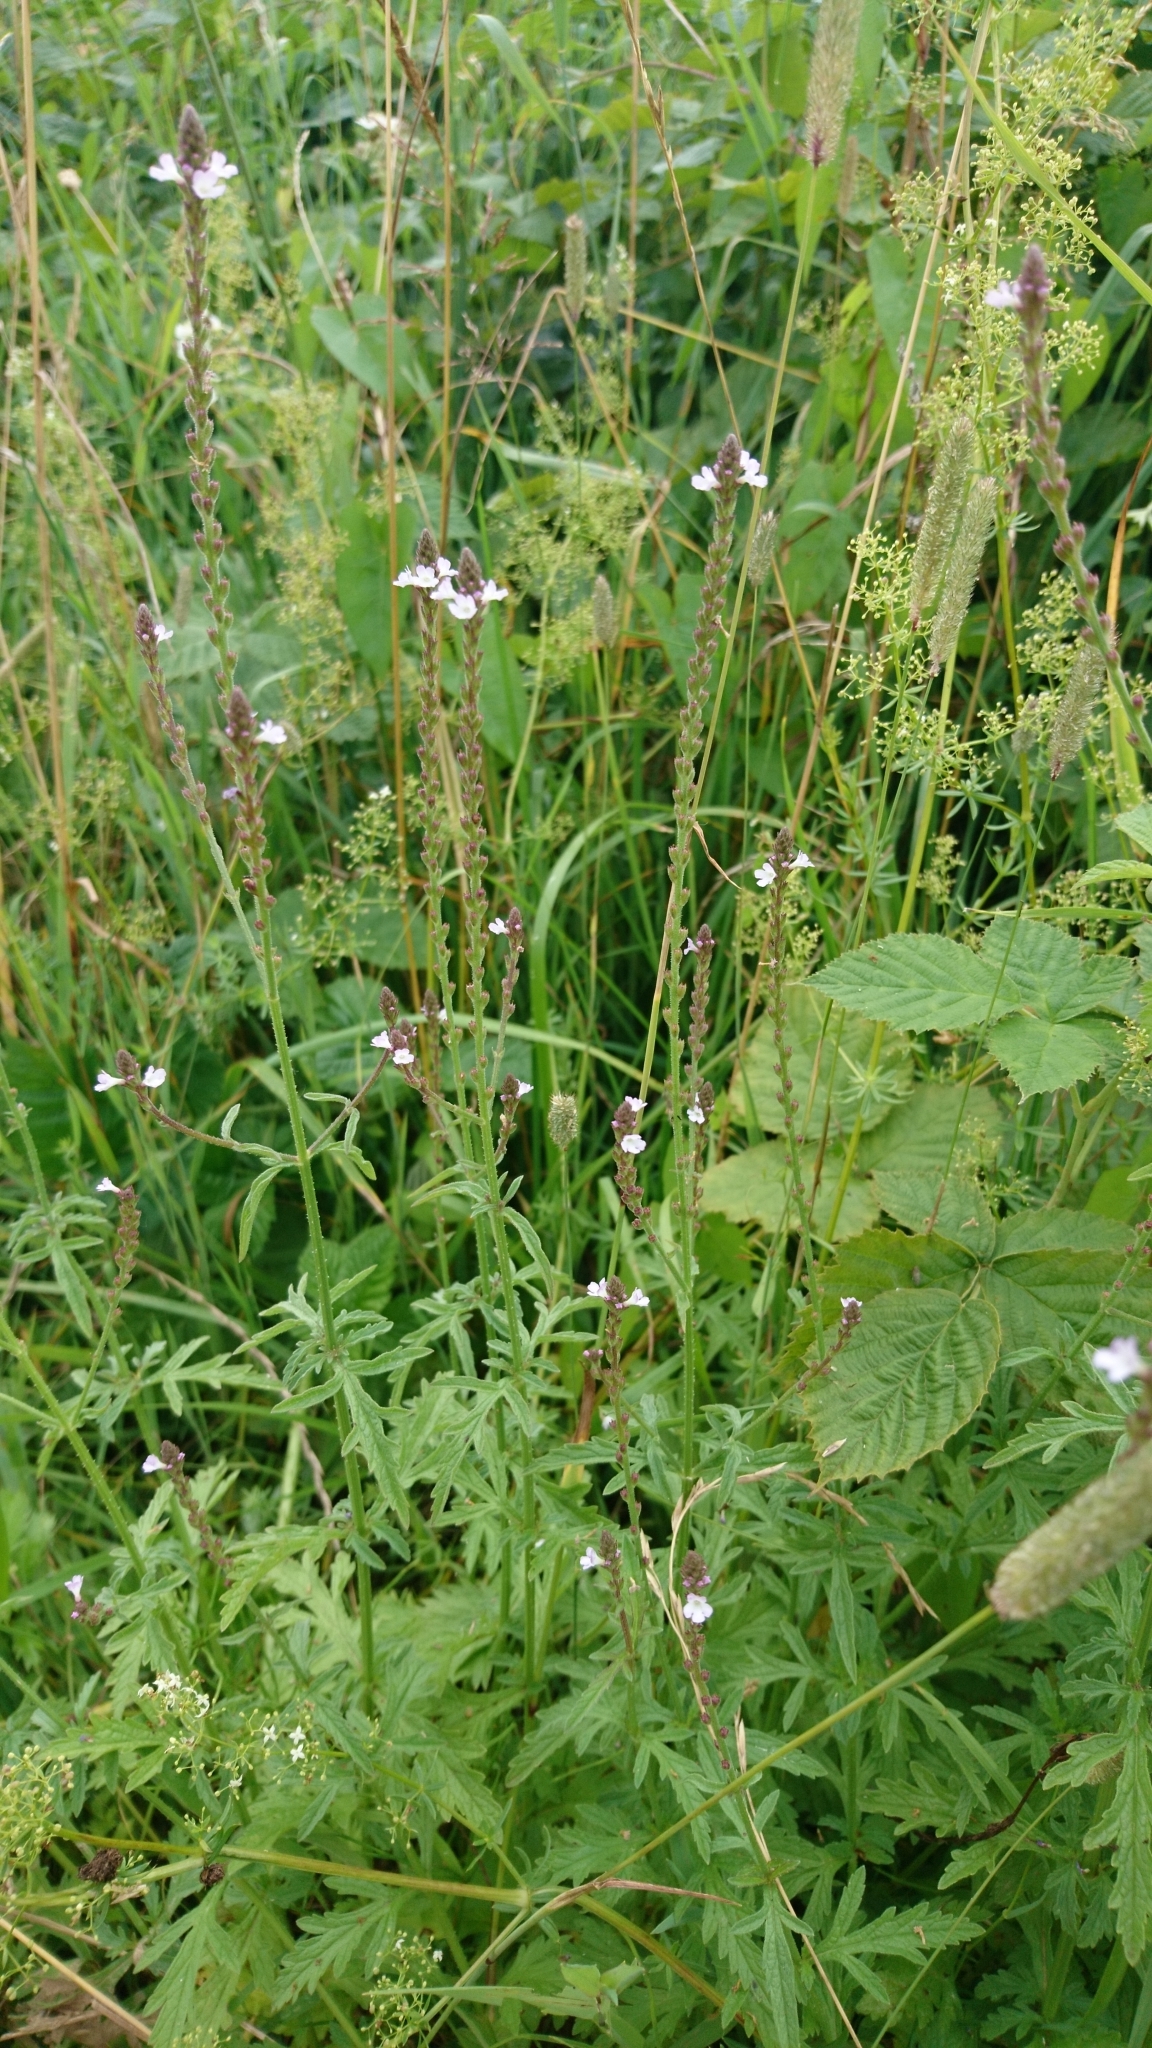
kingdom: Plantae
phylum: Tracheophyta
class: Magnoliopsida
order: Lamiales
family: Verbenaceae
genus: Verbena
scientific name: Verbena officinalis
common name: Vervain
